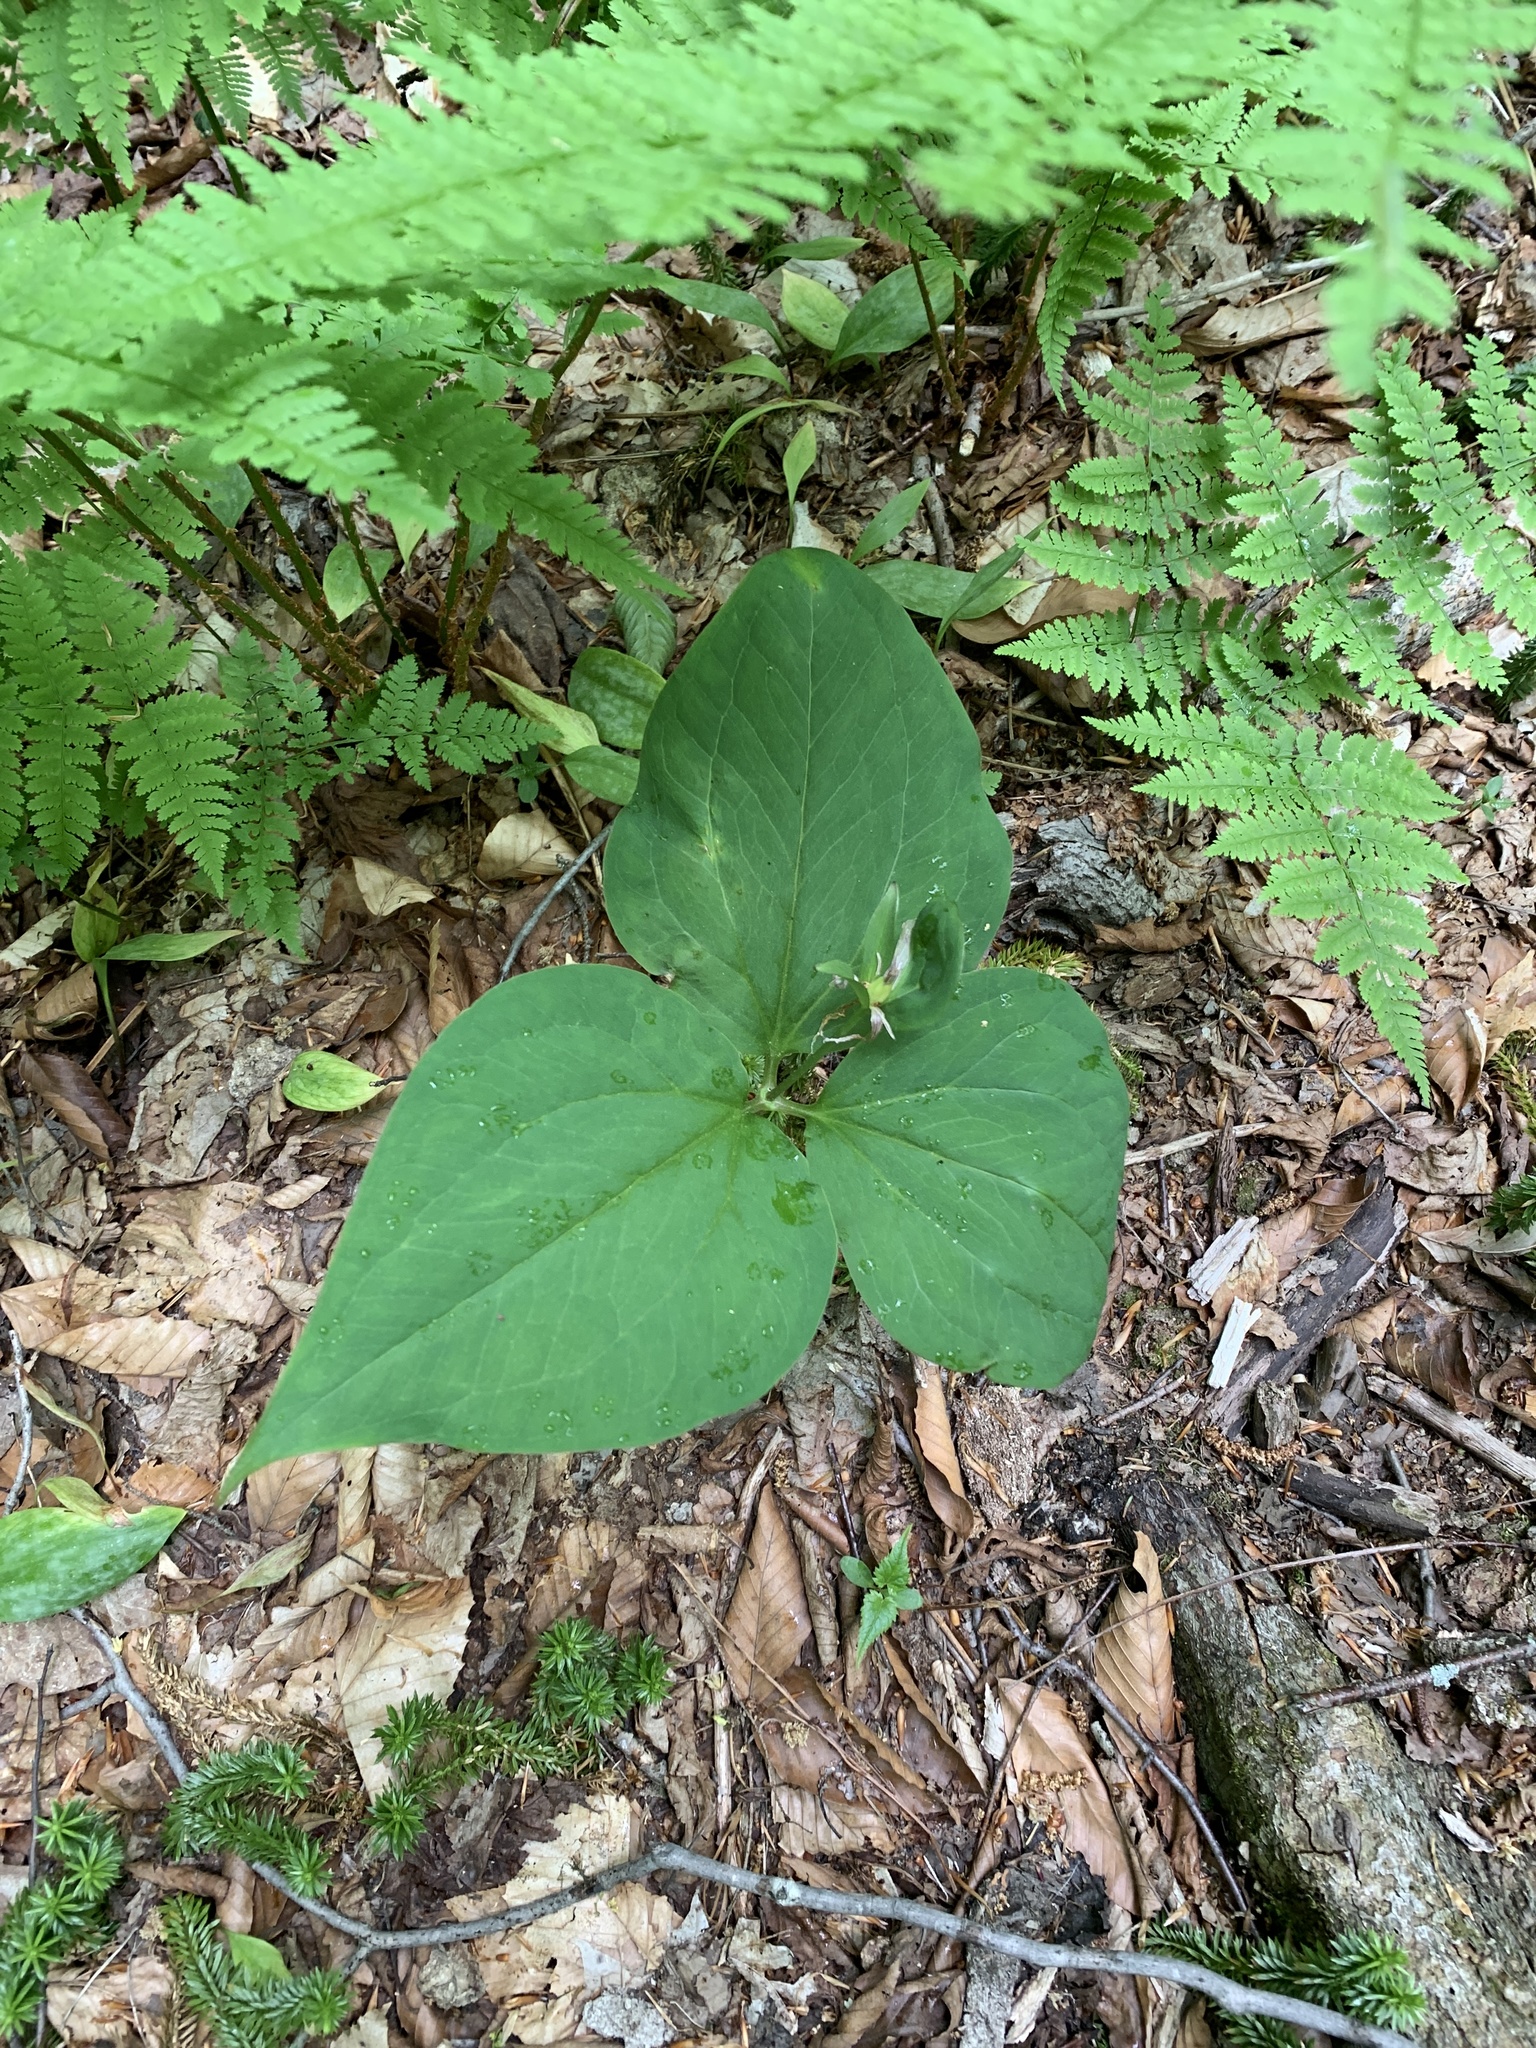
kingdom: Plantae
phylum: Tracheophyta
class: Liliopsida
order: Liliales
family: Melanthiaceae
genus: Trillium
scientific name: Trillium undulatum
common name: Paint trillium
